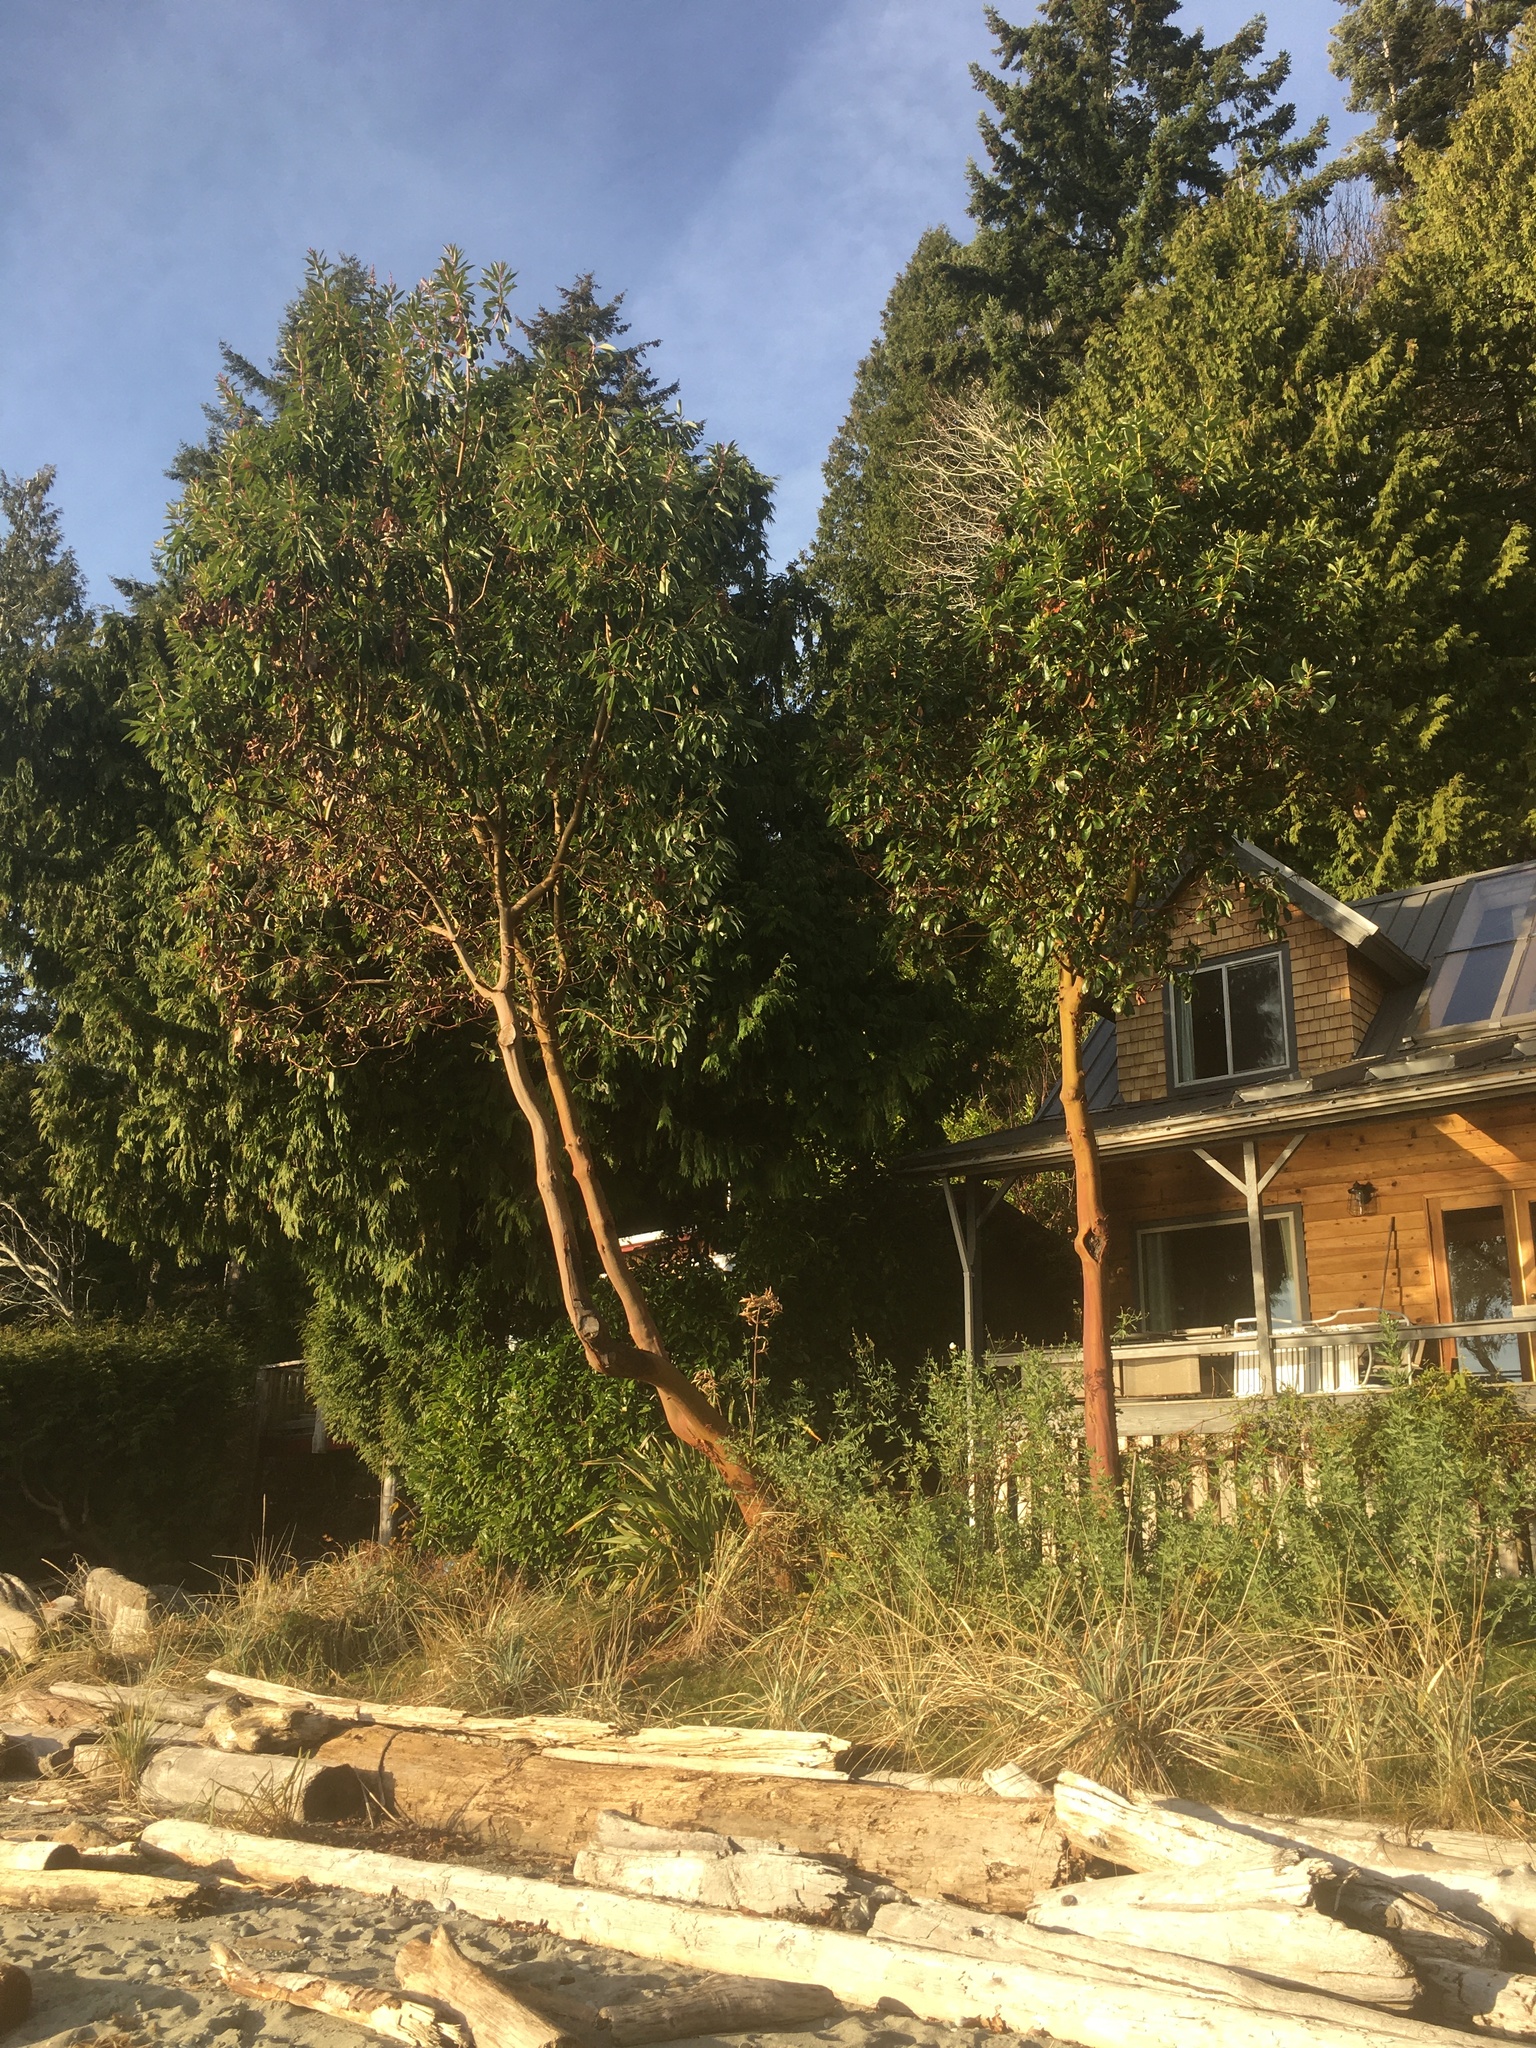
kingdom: Plantae
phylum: Tracheophyta
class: Magnoliopsida
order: Ericales
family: Ericaceae
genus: Arbutus
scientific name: Arbutus menziesii
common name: Pacific madrone
